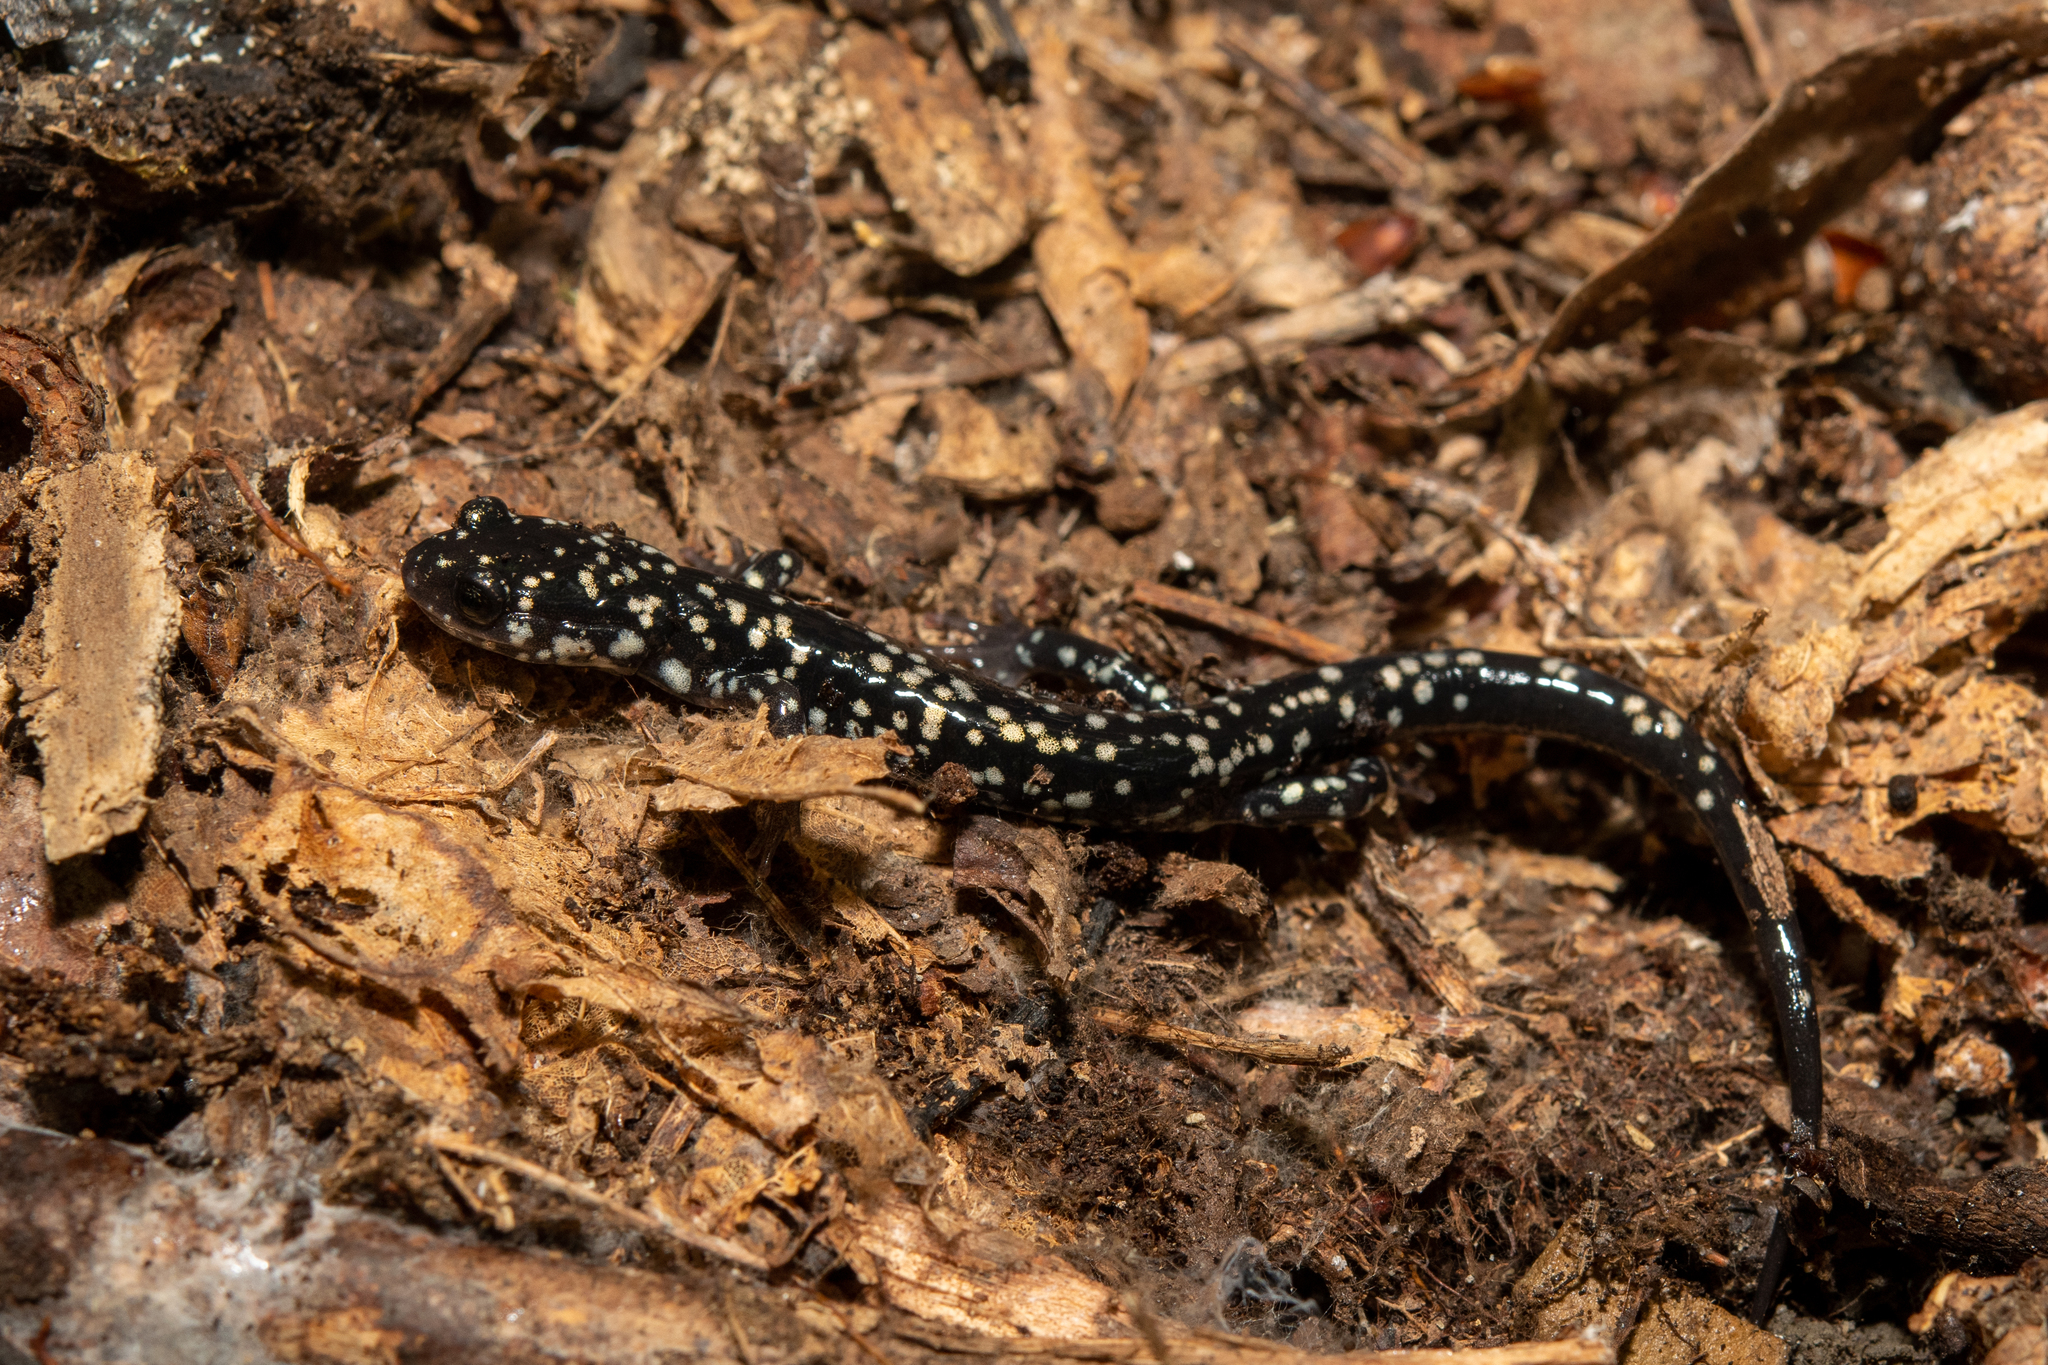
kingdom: Animalia
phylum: Chordata
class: Amphibia
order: Caudata
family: Plethodontidae
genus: Plethodon
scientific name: Plethodon glutinosus
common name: Northern slimy salamander
